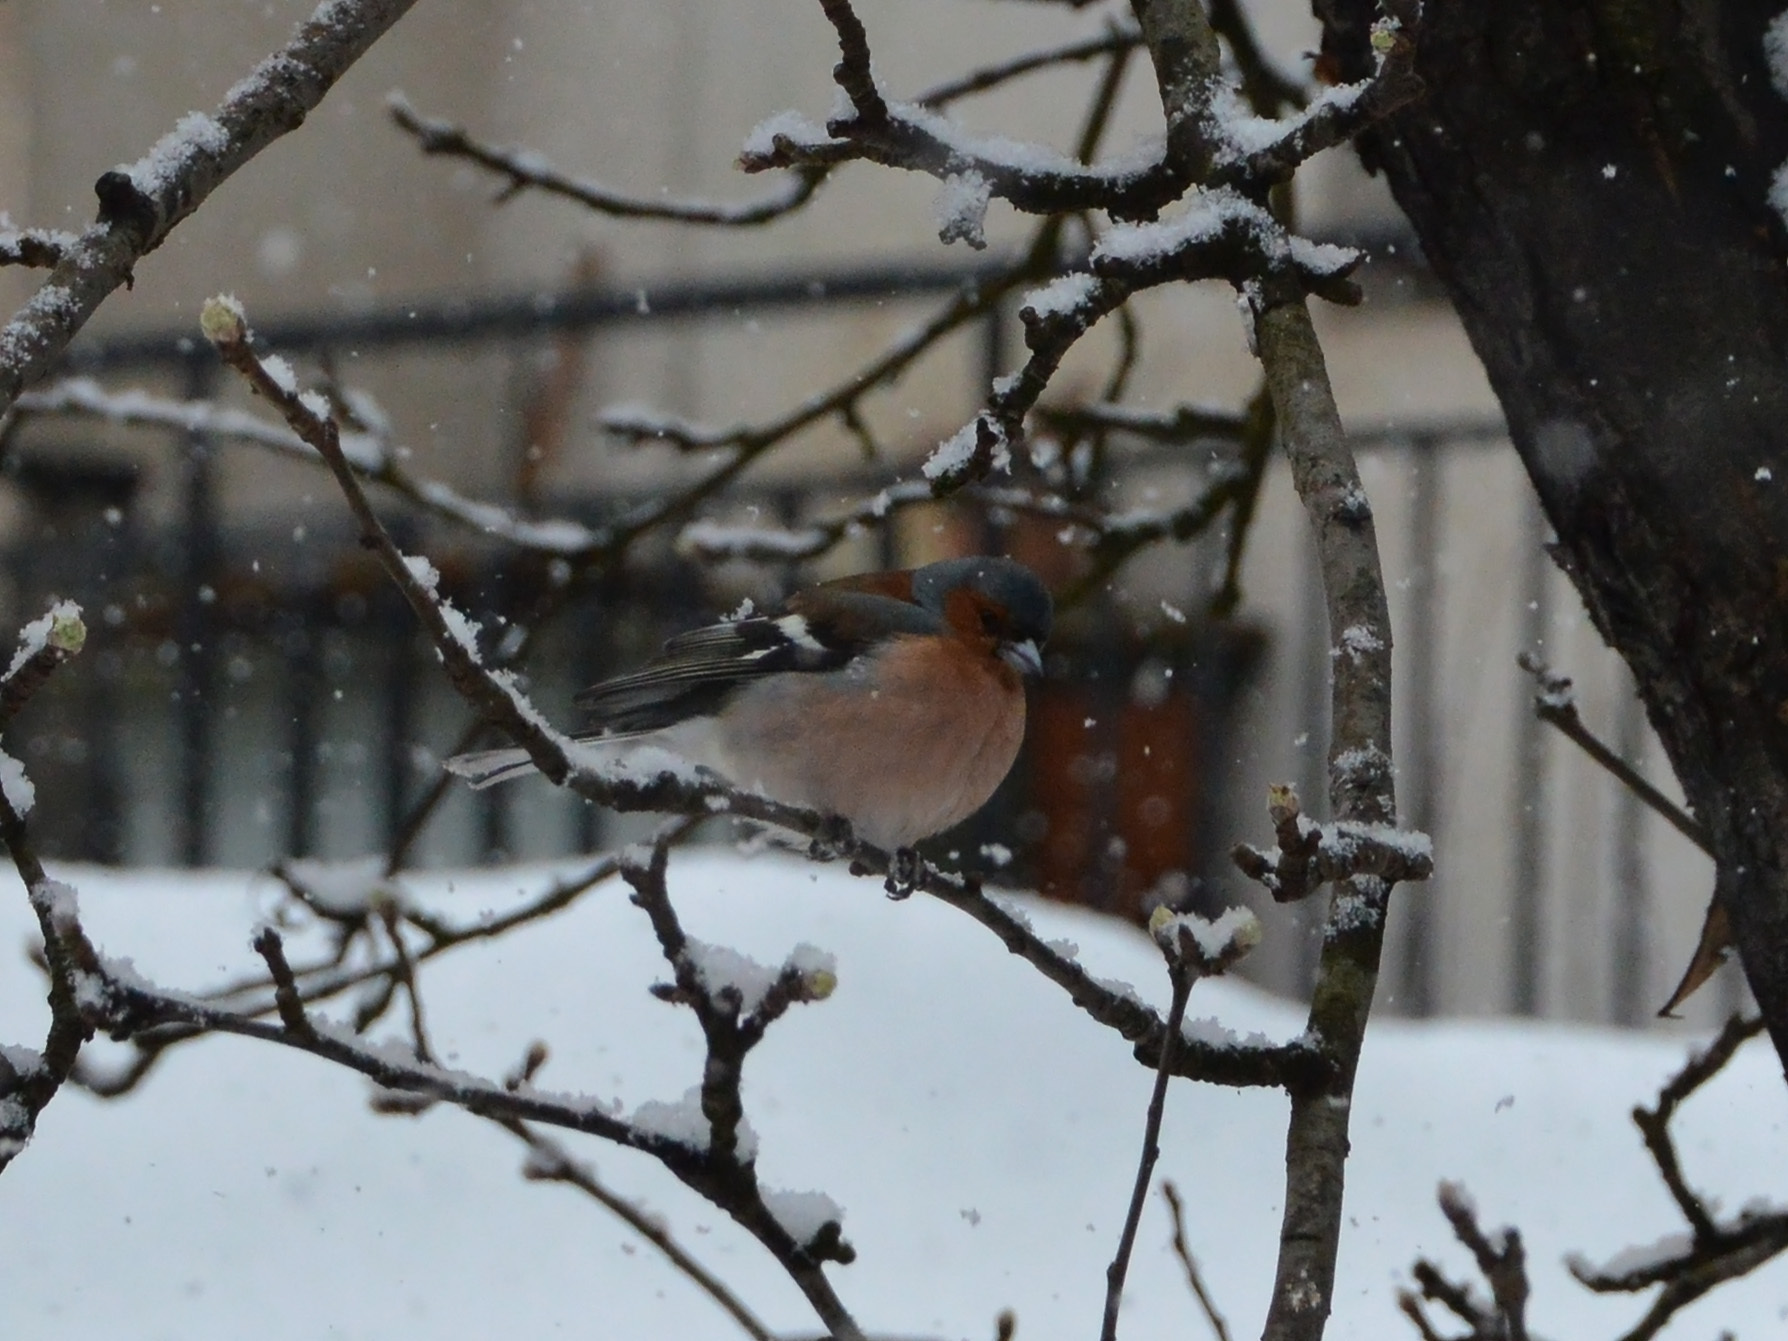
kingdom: Animalia
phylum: Chordata
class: Aves
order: Passeriformes
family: Fringillidae
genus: Fringilla
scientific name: Fringilla coelebs
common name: Common chaffinch
